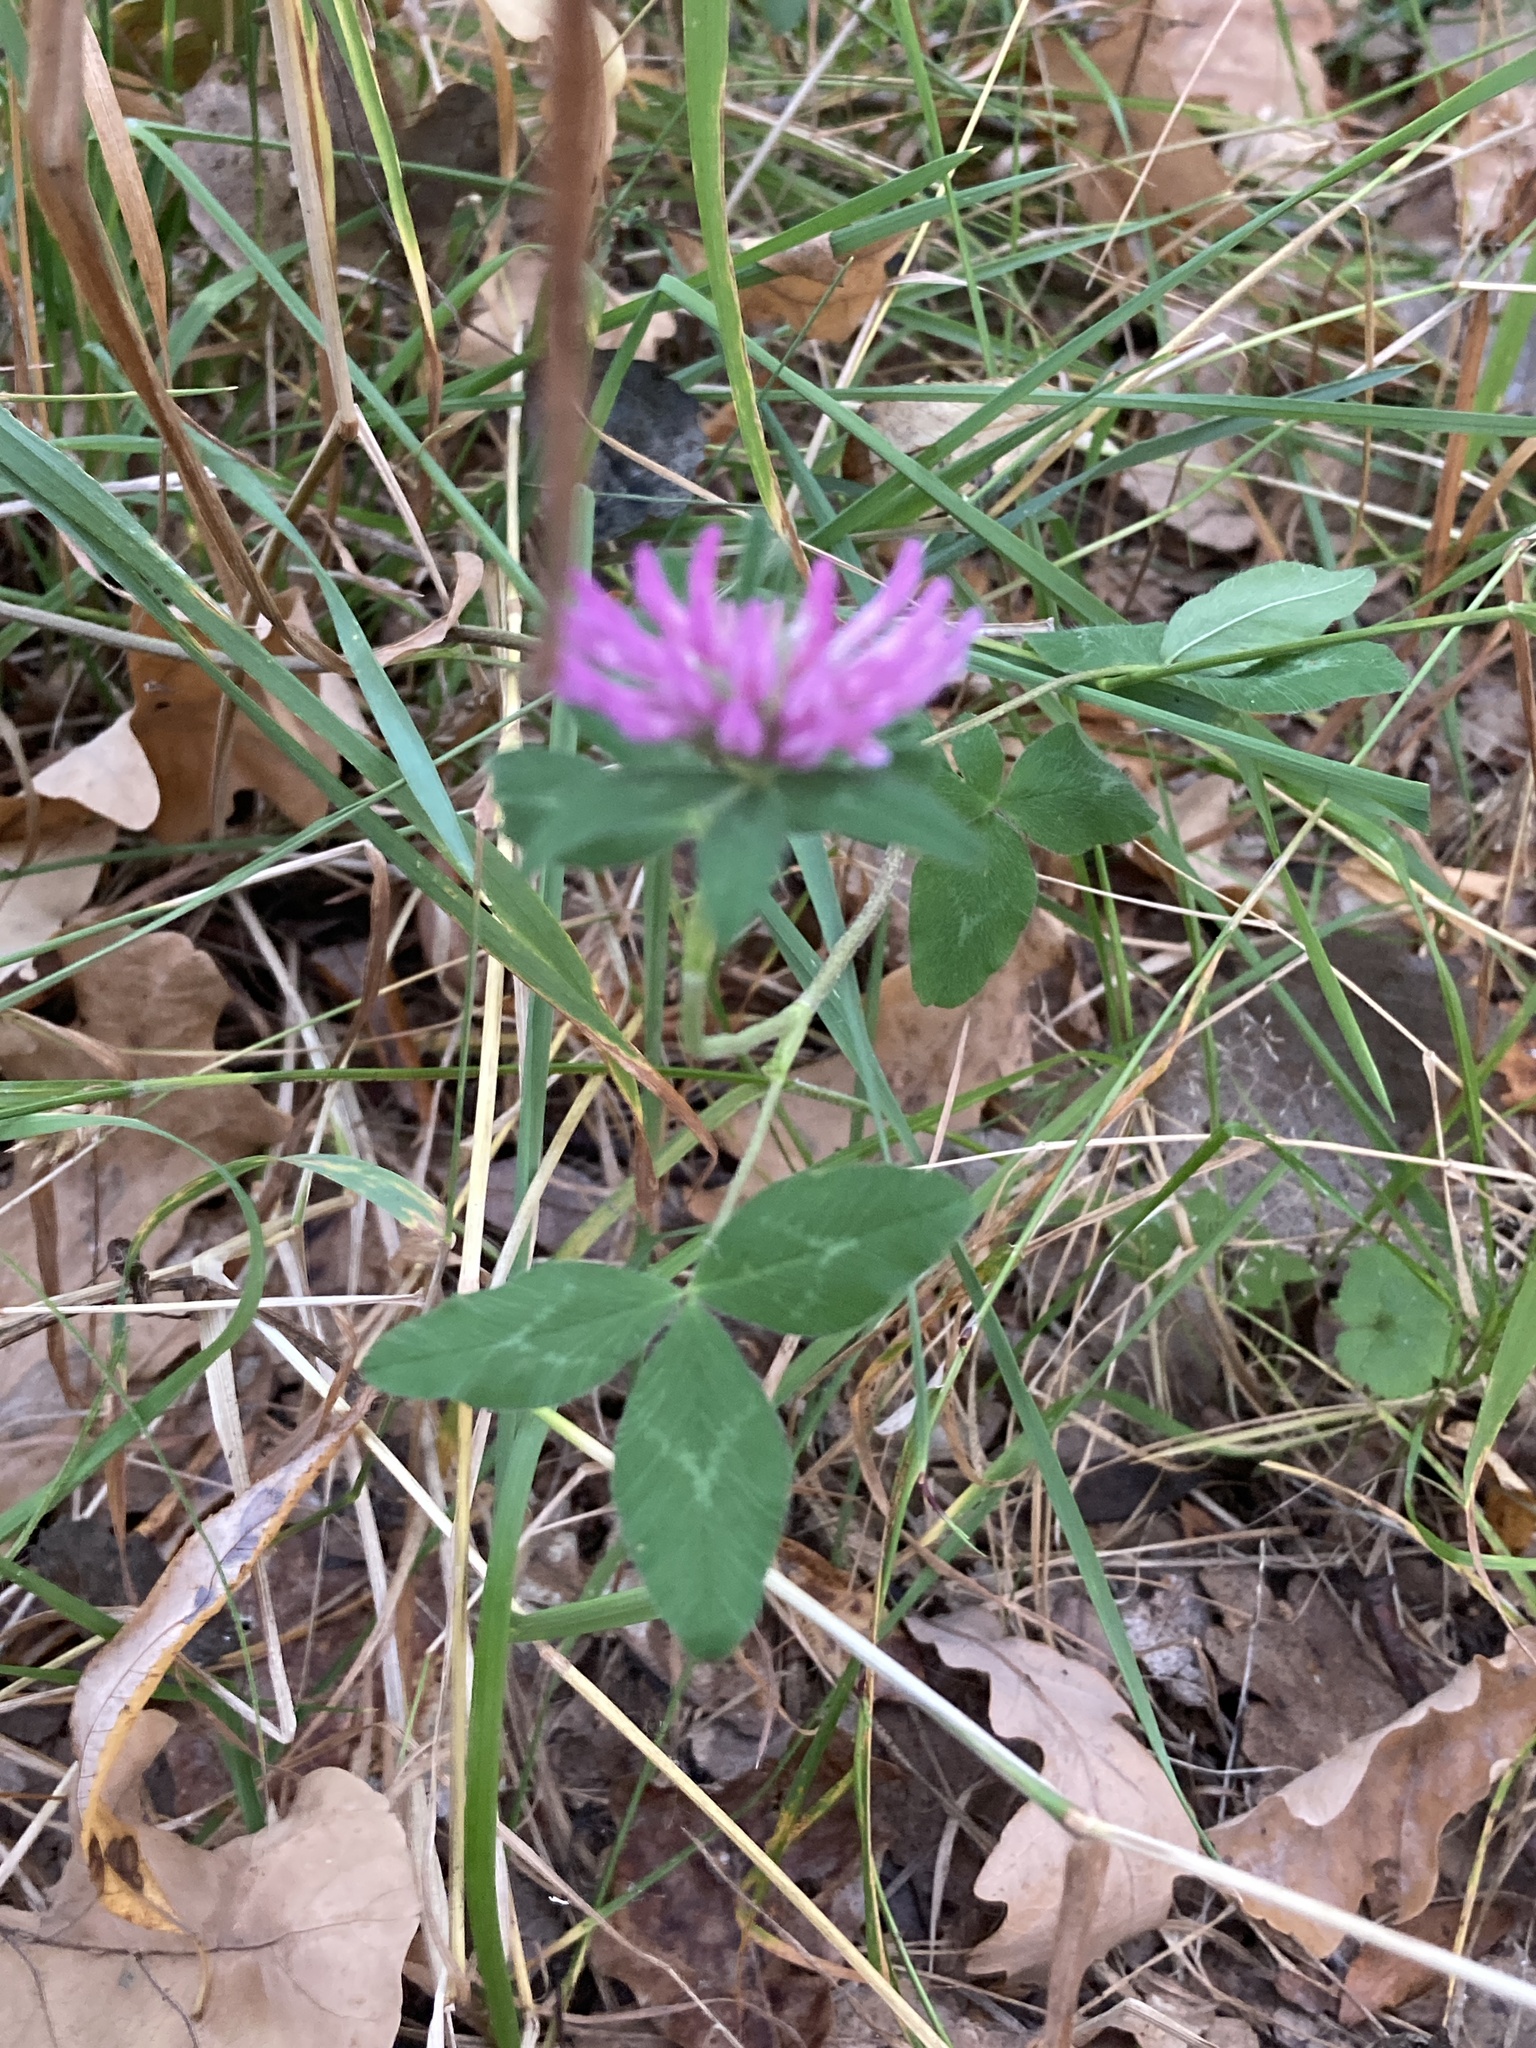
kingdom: Plantae
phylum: Tracheophyta
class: Magnoliopsida
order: Fabales
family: Fabaceae
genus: Trifolium
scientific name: Trifolium pratense
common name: Red clover
